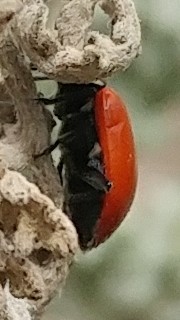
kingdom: Animalia
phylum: Arthropoda
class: Insecta
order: Coleoptera
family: Coccinellidae
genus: Hippodamia
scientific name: Hippodamia quinquesignata
